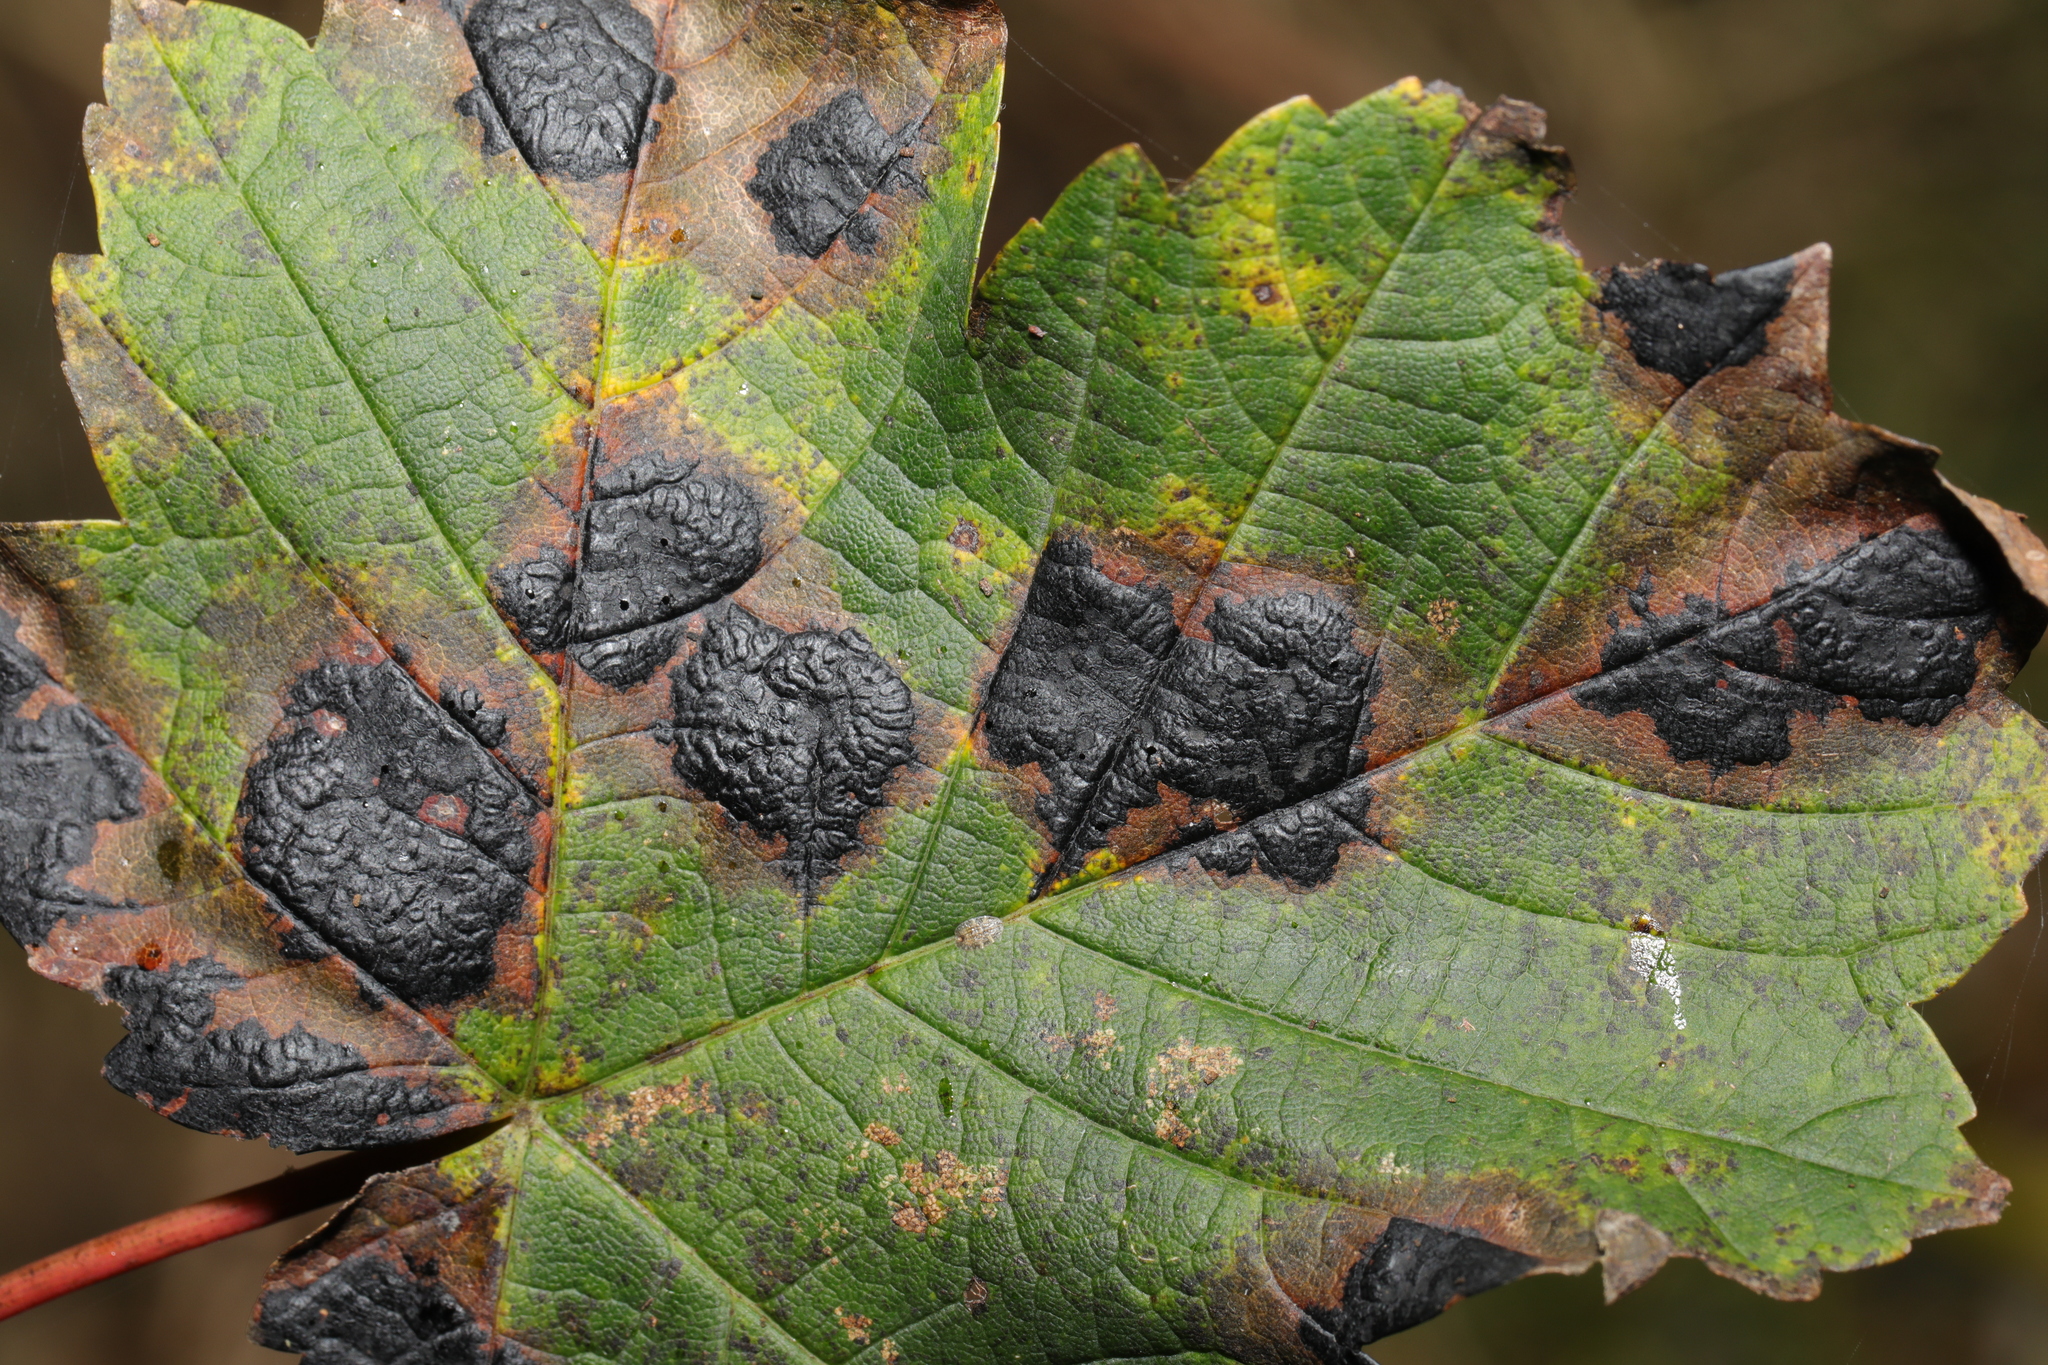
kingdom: Fungi
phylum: Ascomycota
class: Leotiomycetes
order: Rhytismatales
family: Rhytismataceae
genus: Rhytisma
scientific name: Rhytisma acerinum
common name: European tar spot
